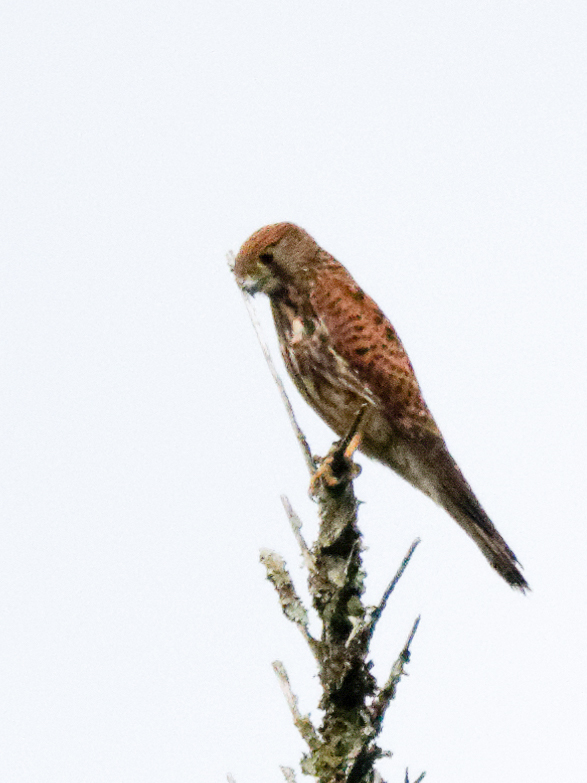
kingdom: Animalia
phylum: Chordata
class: Aves
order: Falconiformes
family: Falconidae
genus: Falco
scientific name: Falco moluccensis
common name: Spotted kestrel
